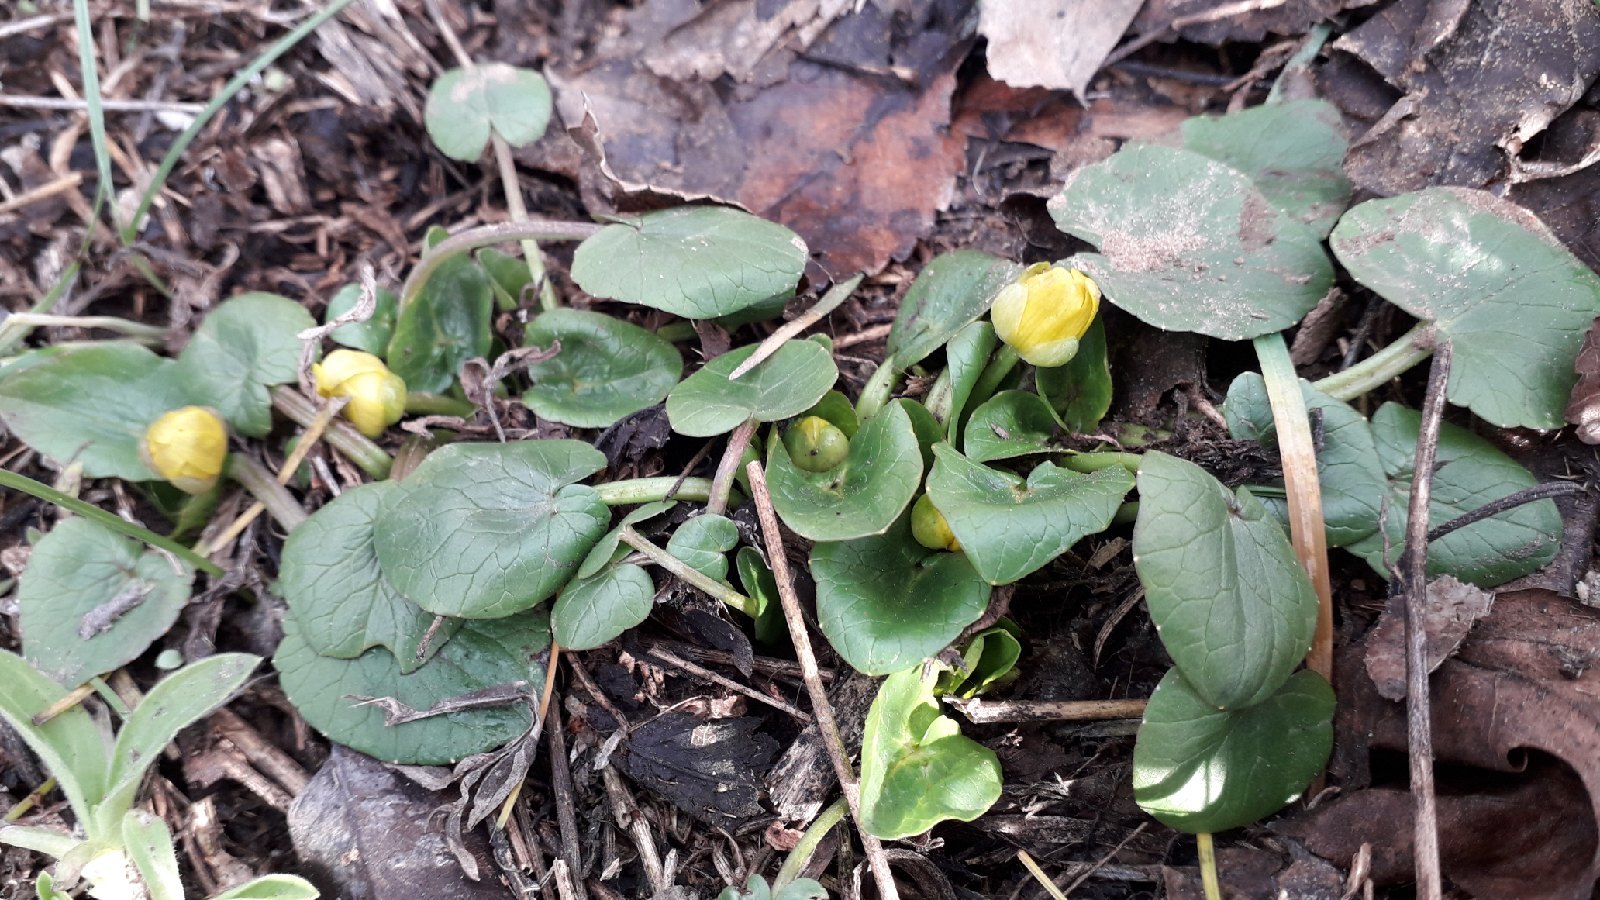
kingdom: Plantae
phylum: Tracheophyta
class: Magnoliopsida
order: Ranunculales
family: Ranunculaceae
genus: Ficaria
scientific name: Ficaria verna
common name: Lesser celandine
